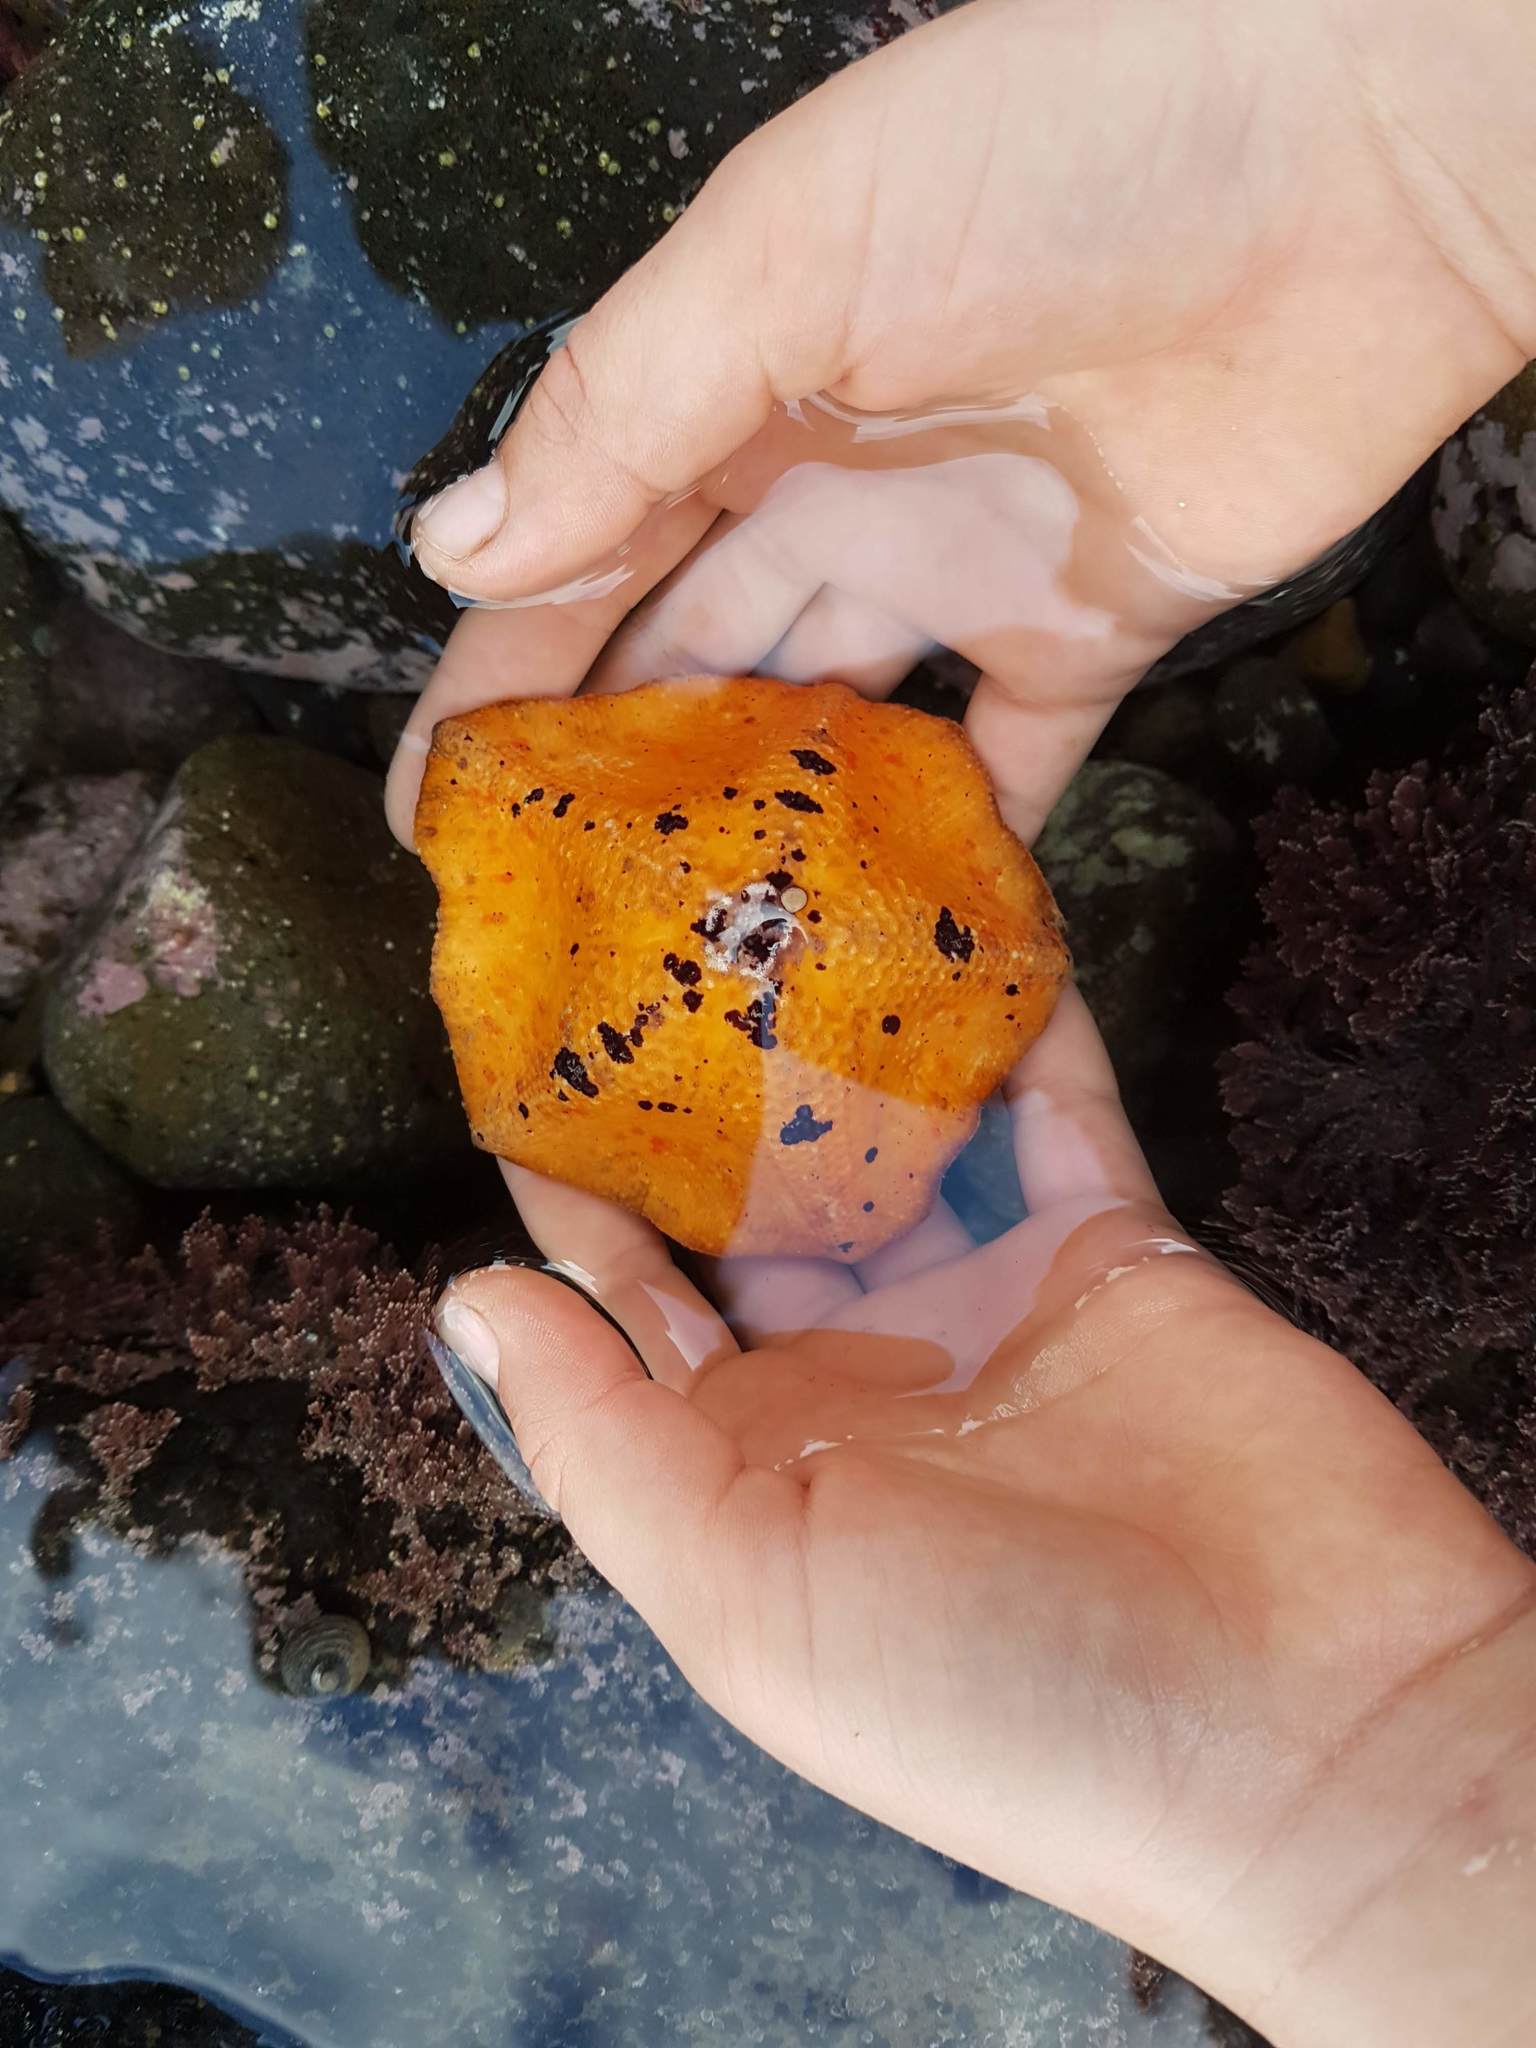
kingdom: Animalia
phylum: Echinodermata
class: Asteroidea
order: Valvatida
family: Asterinidae
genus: Stegnaster
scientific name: Stegnaster inflatus
